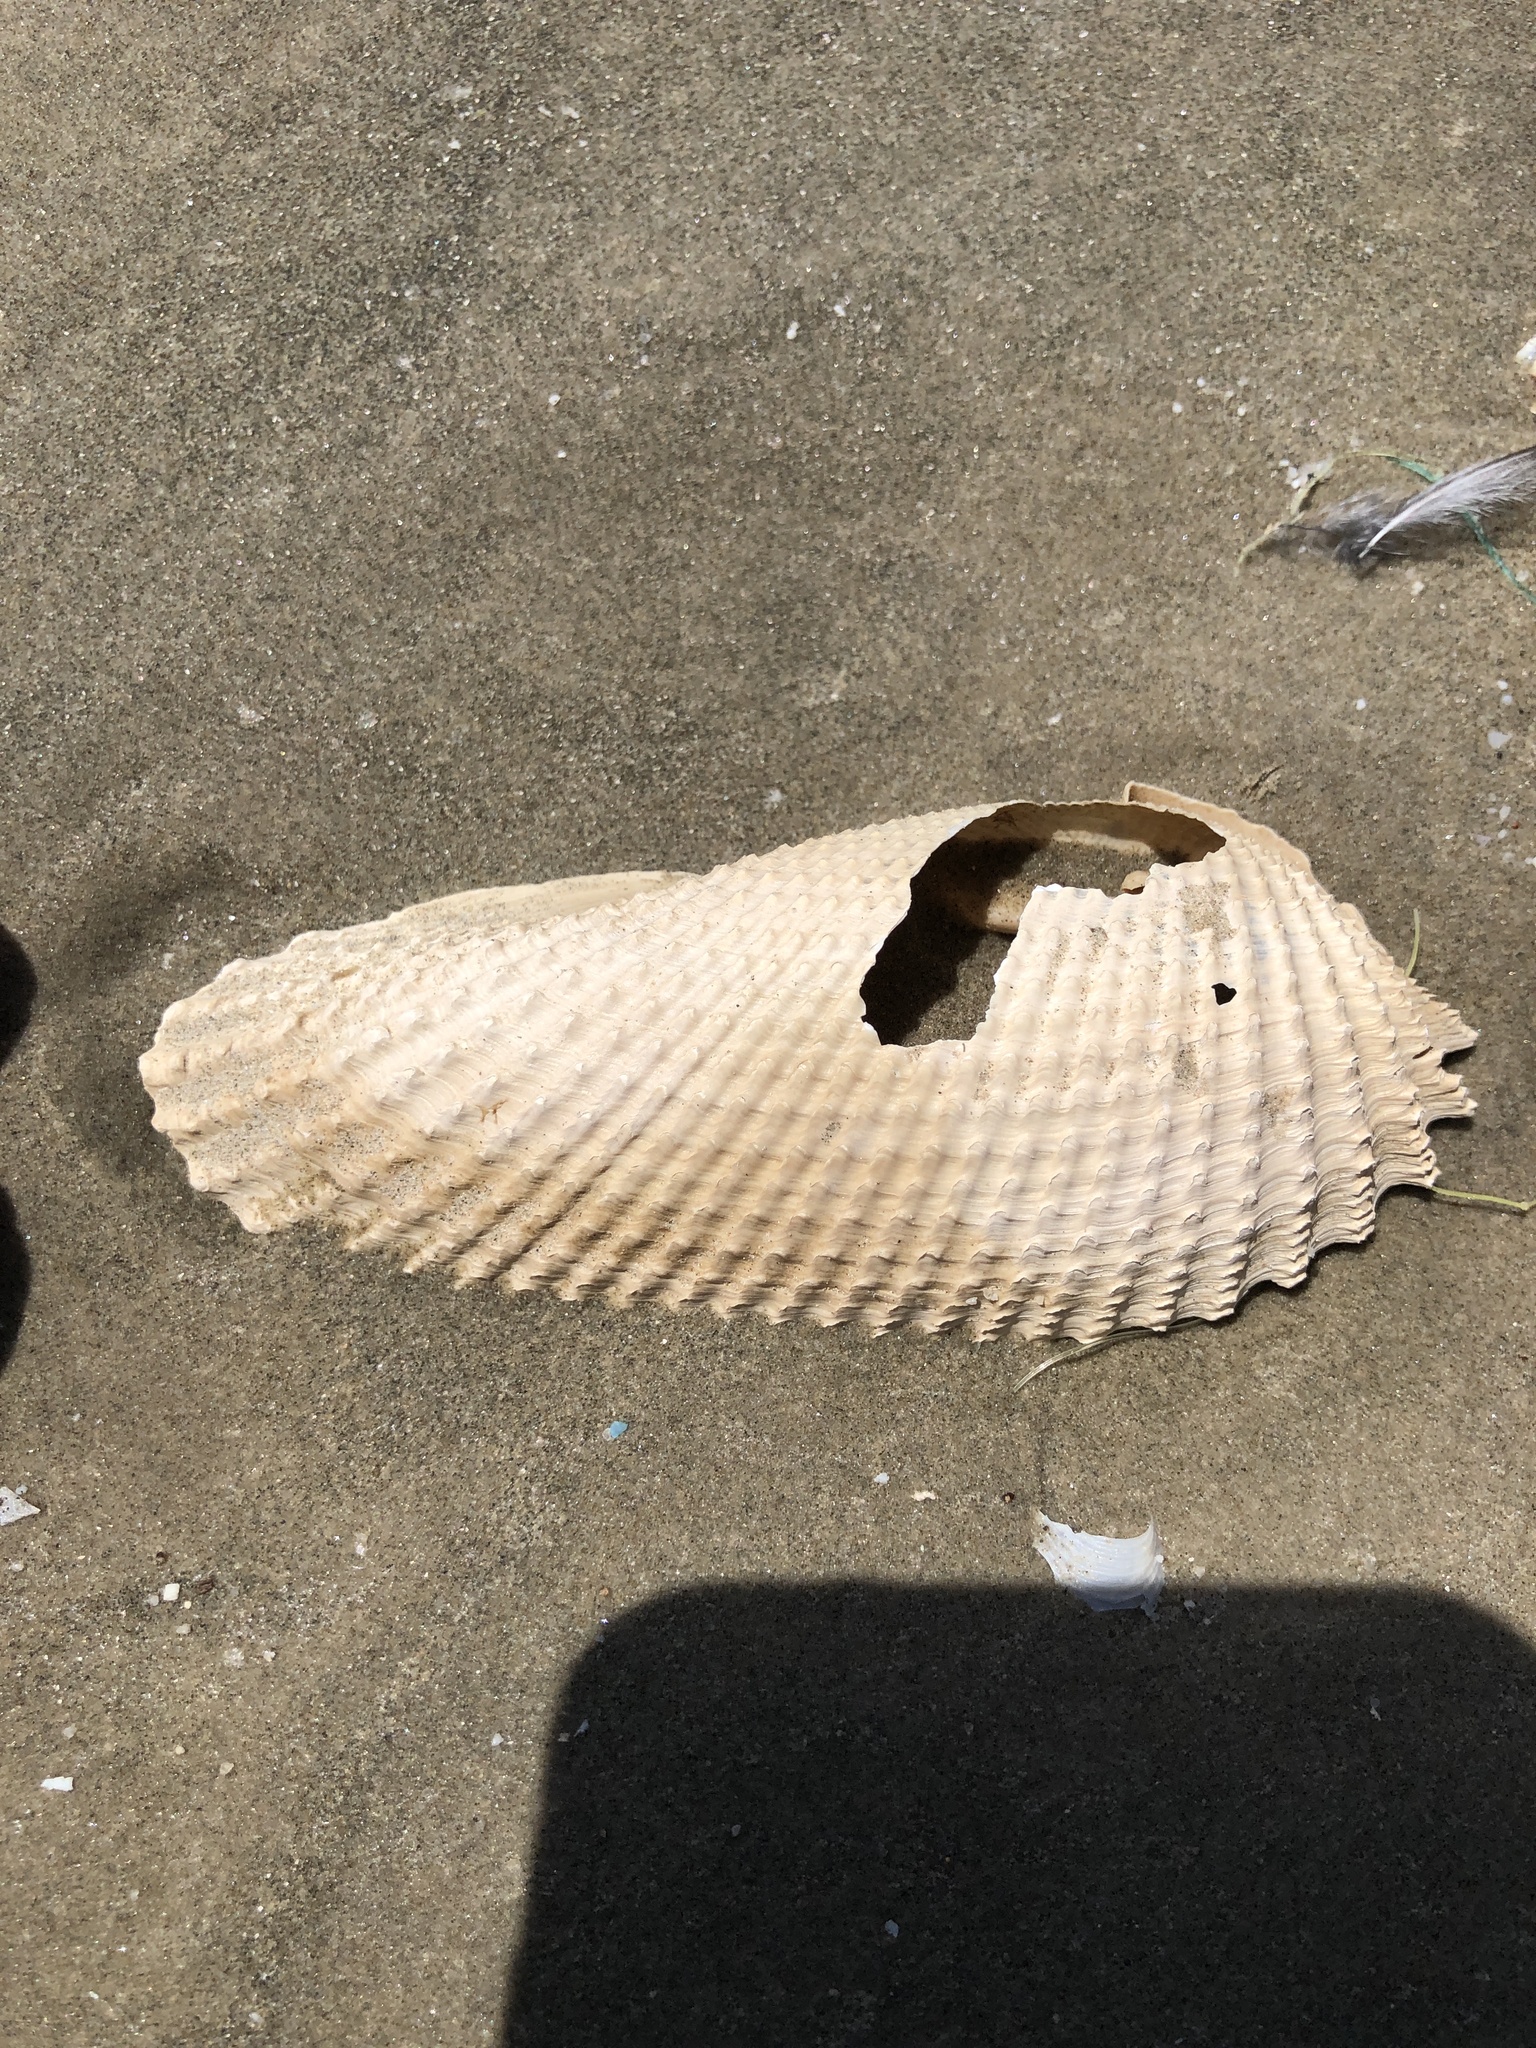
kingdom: Animalia
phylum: Mollusca
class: Bivalvia
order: Myida
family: Pholadidae
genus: Cyrtopleura
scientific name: Cyrtopleura costata
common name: Angel wing
